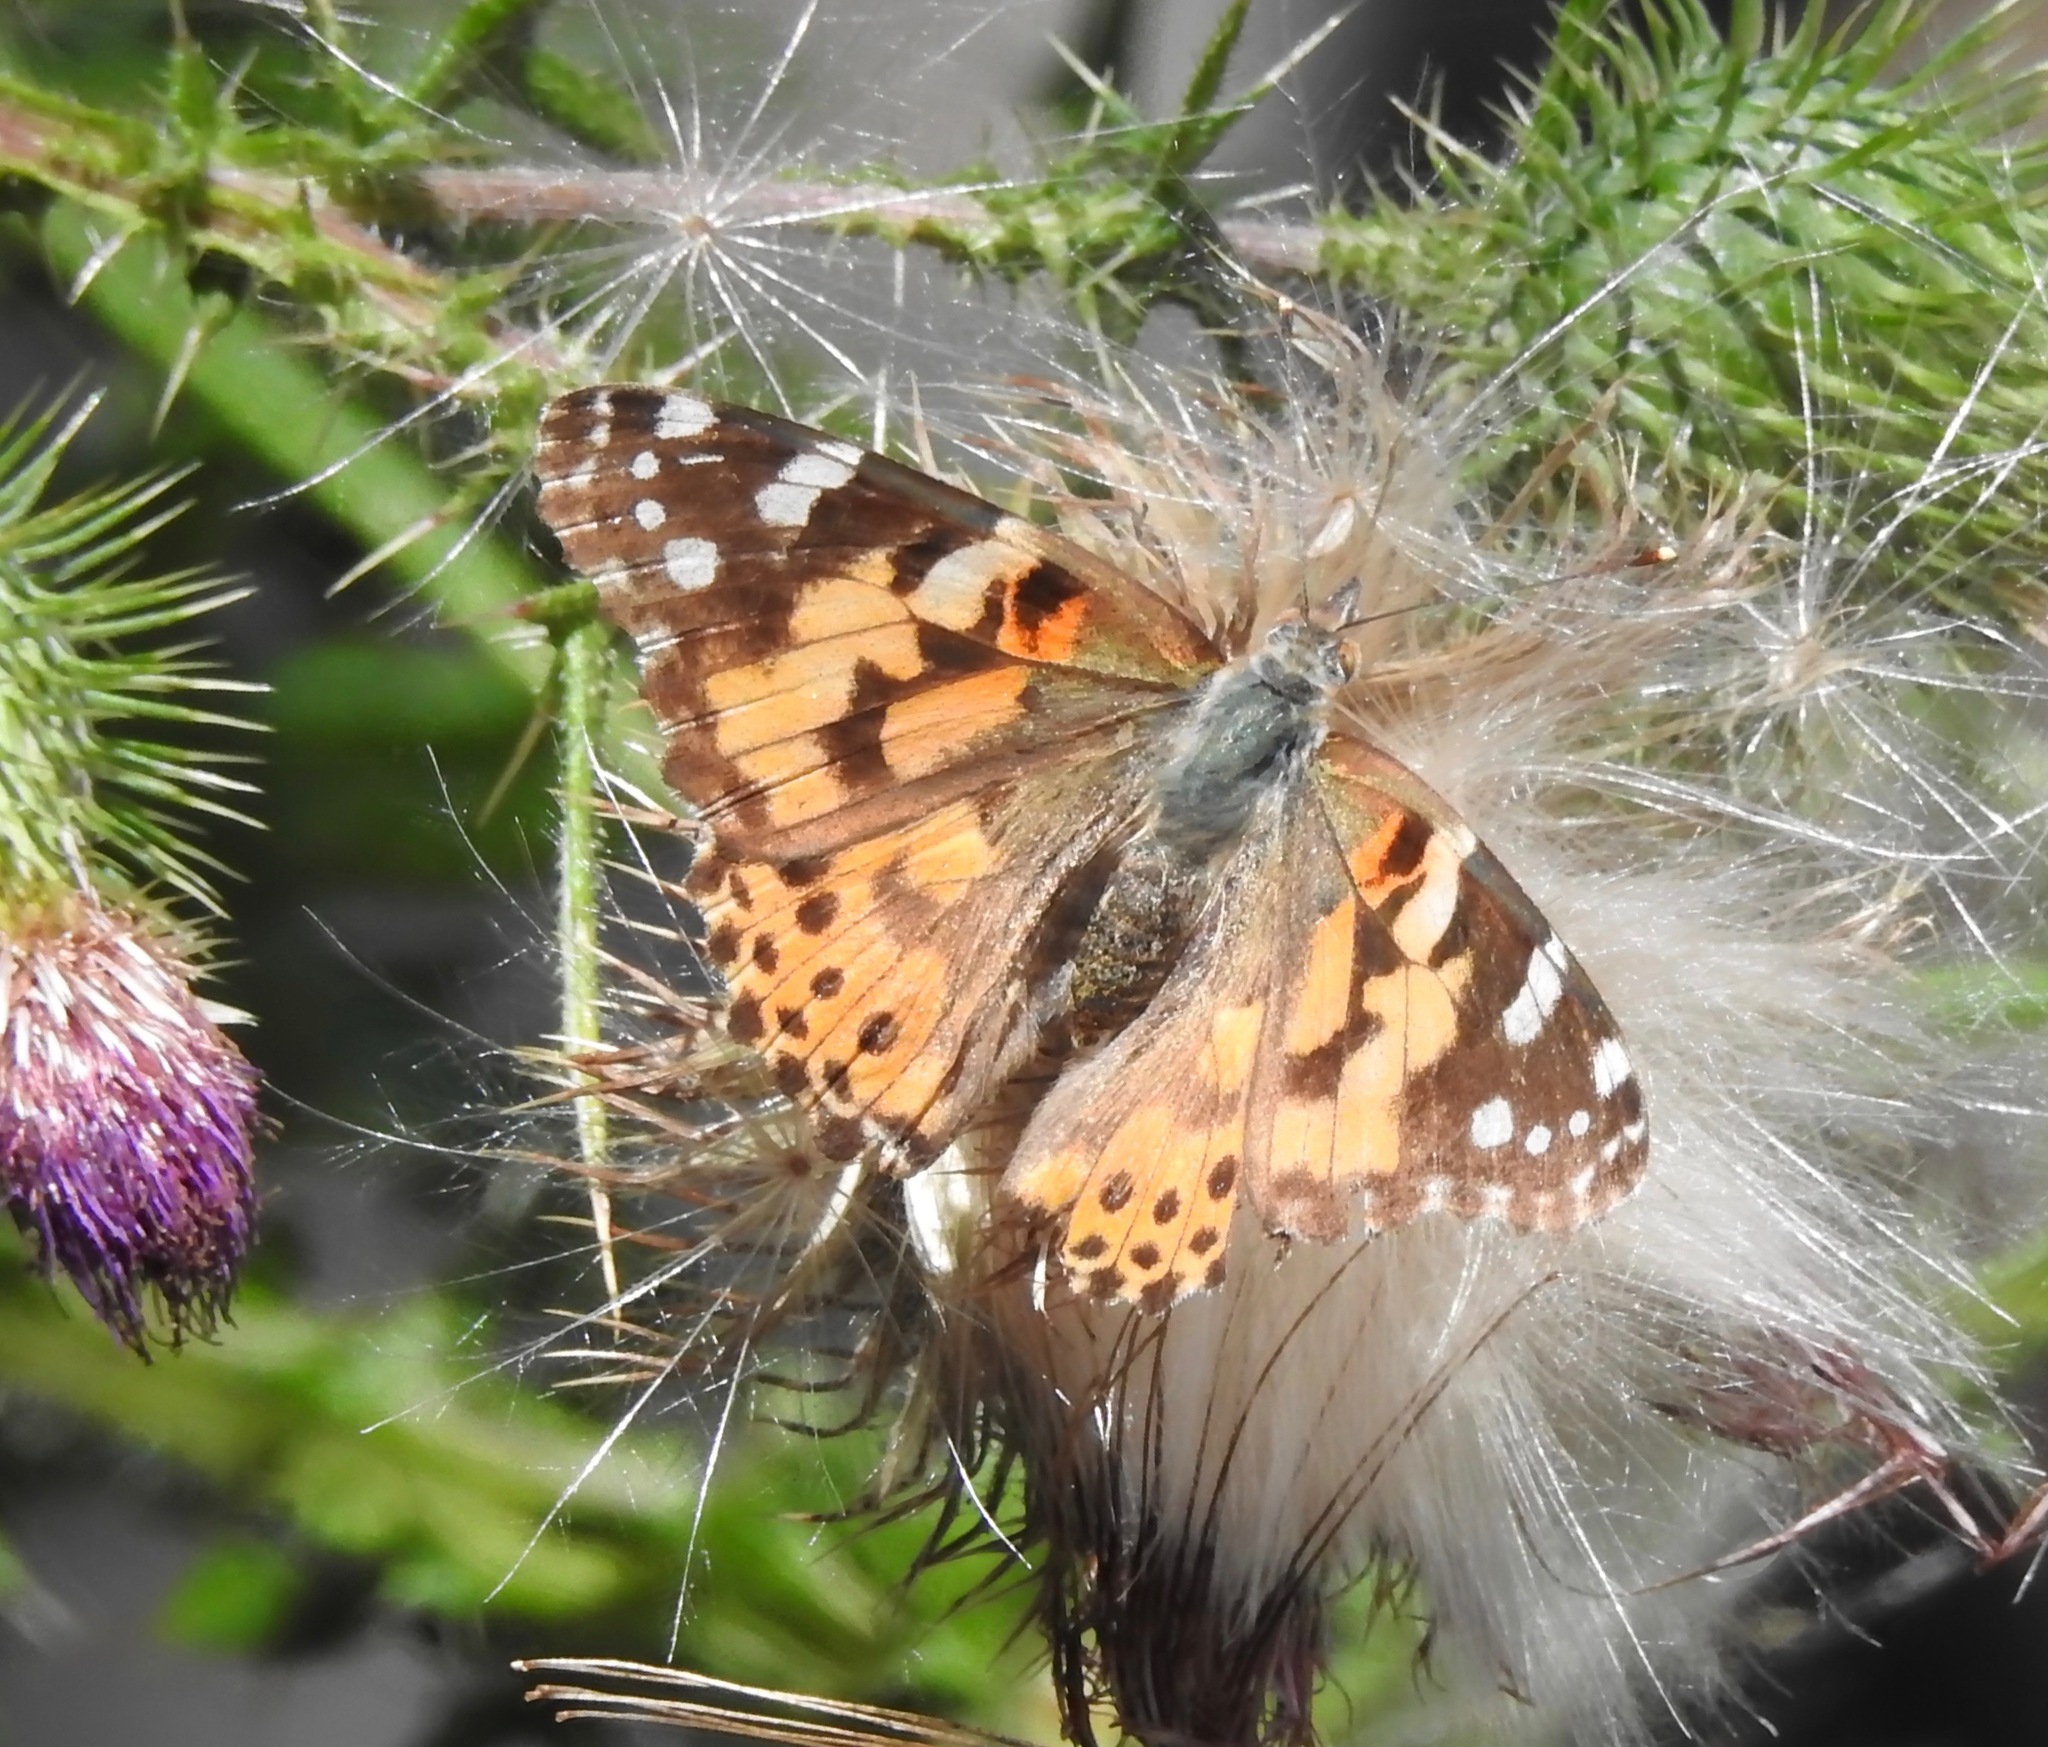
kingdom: Animalia
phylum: Arthropoda
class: Insecta
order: Lepidoptera
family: Nymphalidae
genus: Vanessa
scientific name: Vanessa cardui
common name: Painted lady
